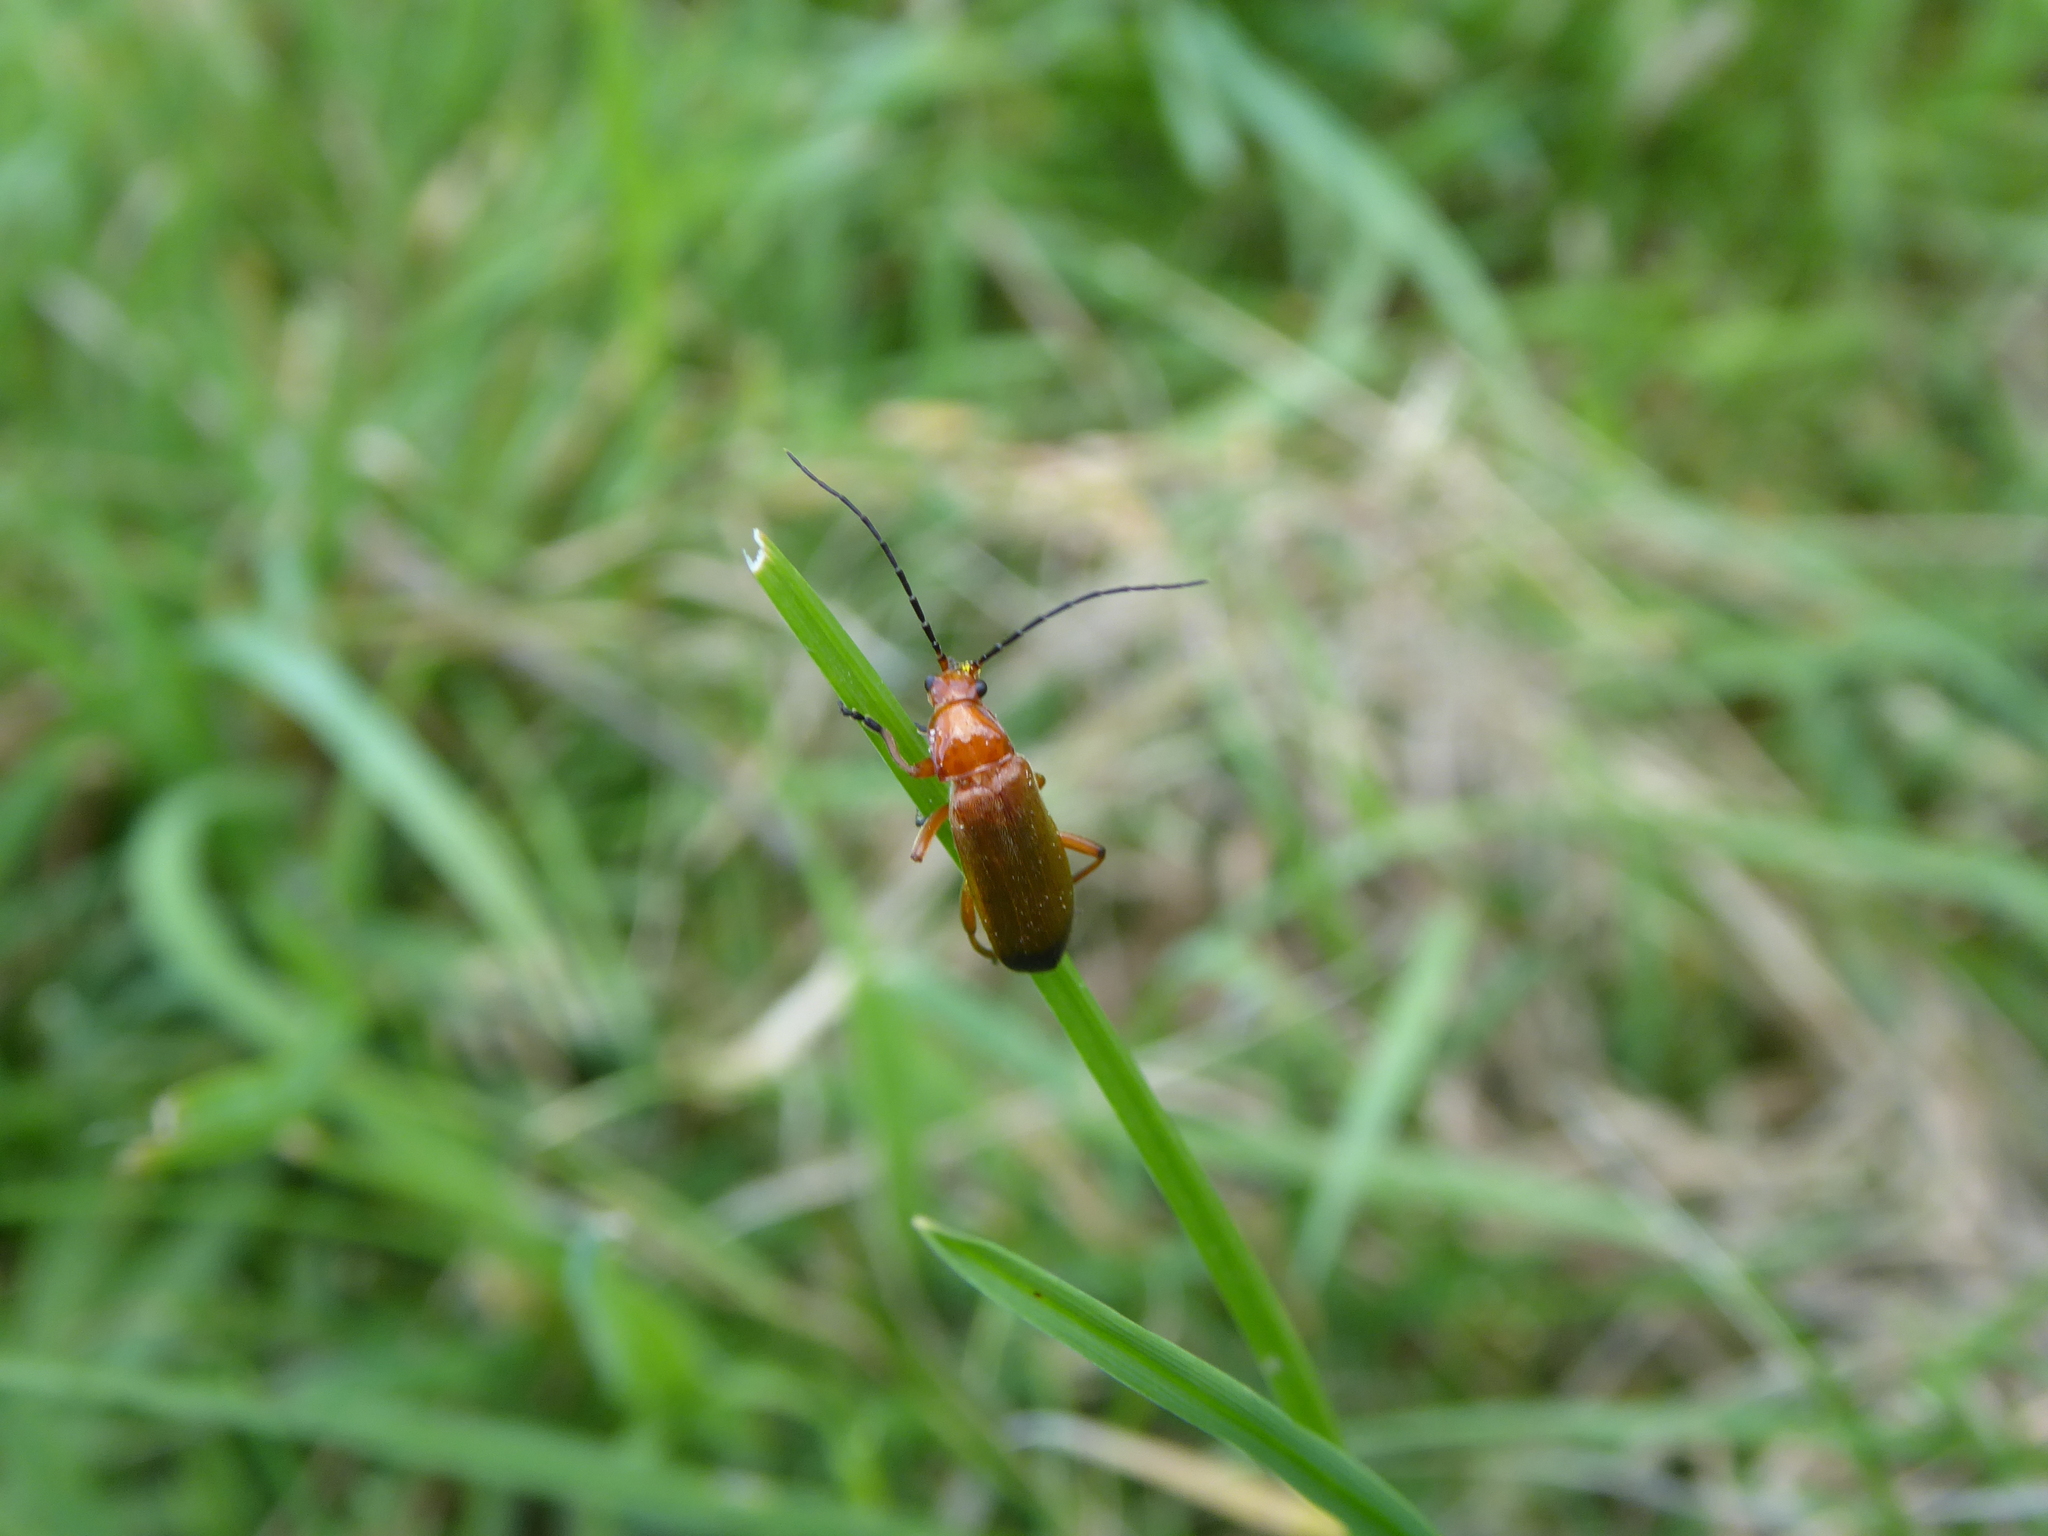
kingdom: Animalia
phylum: Arthropoda
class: Insecta
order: Coleoptera
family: Cantharidae
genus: Rhagonycha
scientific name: Rhagonycha fulva
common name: Common red soldier beetle
